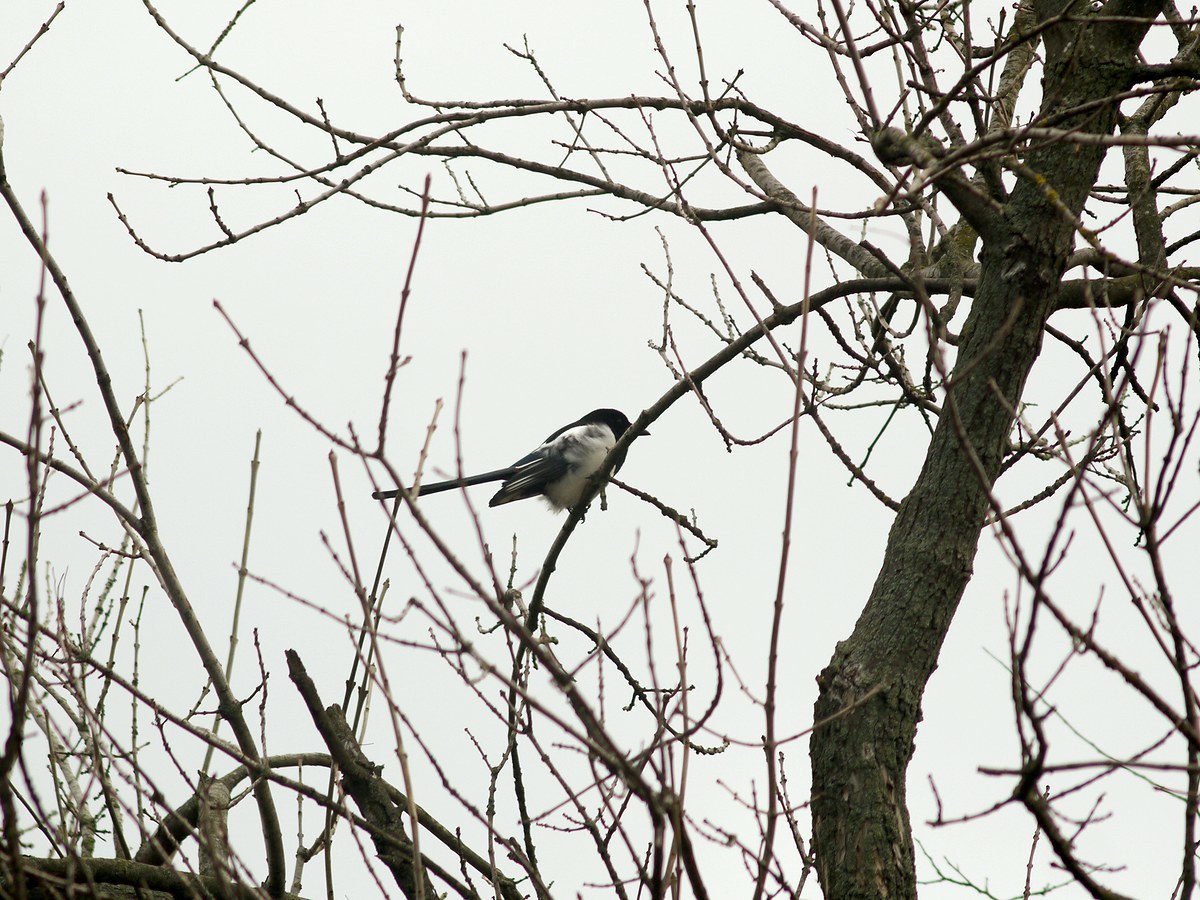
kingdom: Animalia
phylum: Chordata
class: Aves
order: Passeriformes
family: Corvidae
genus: Pica
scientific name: Pica pica
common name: Eurasian magpie
